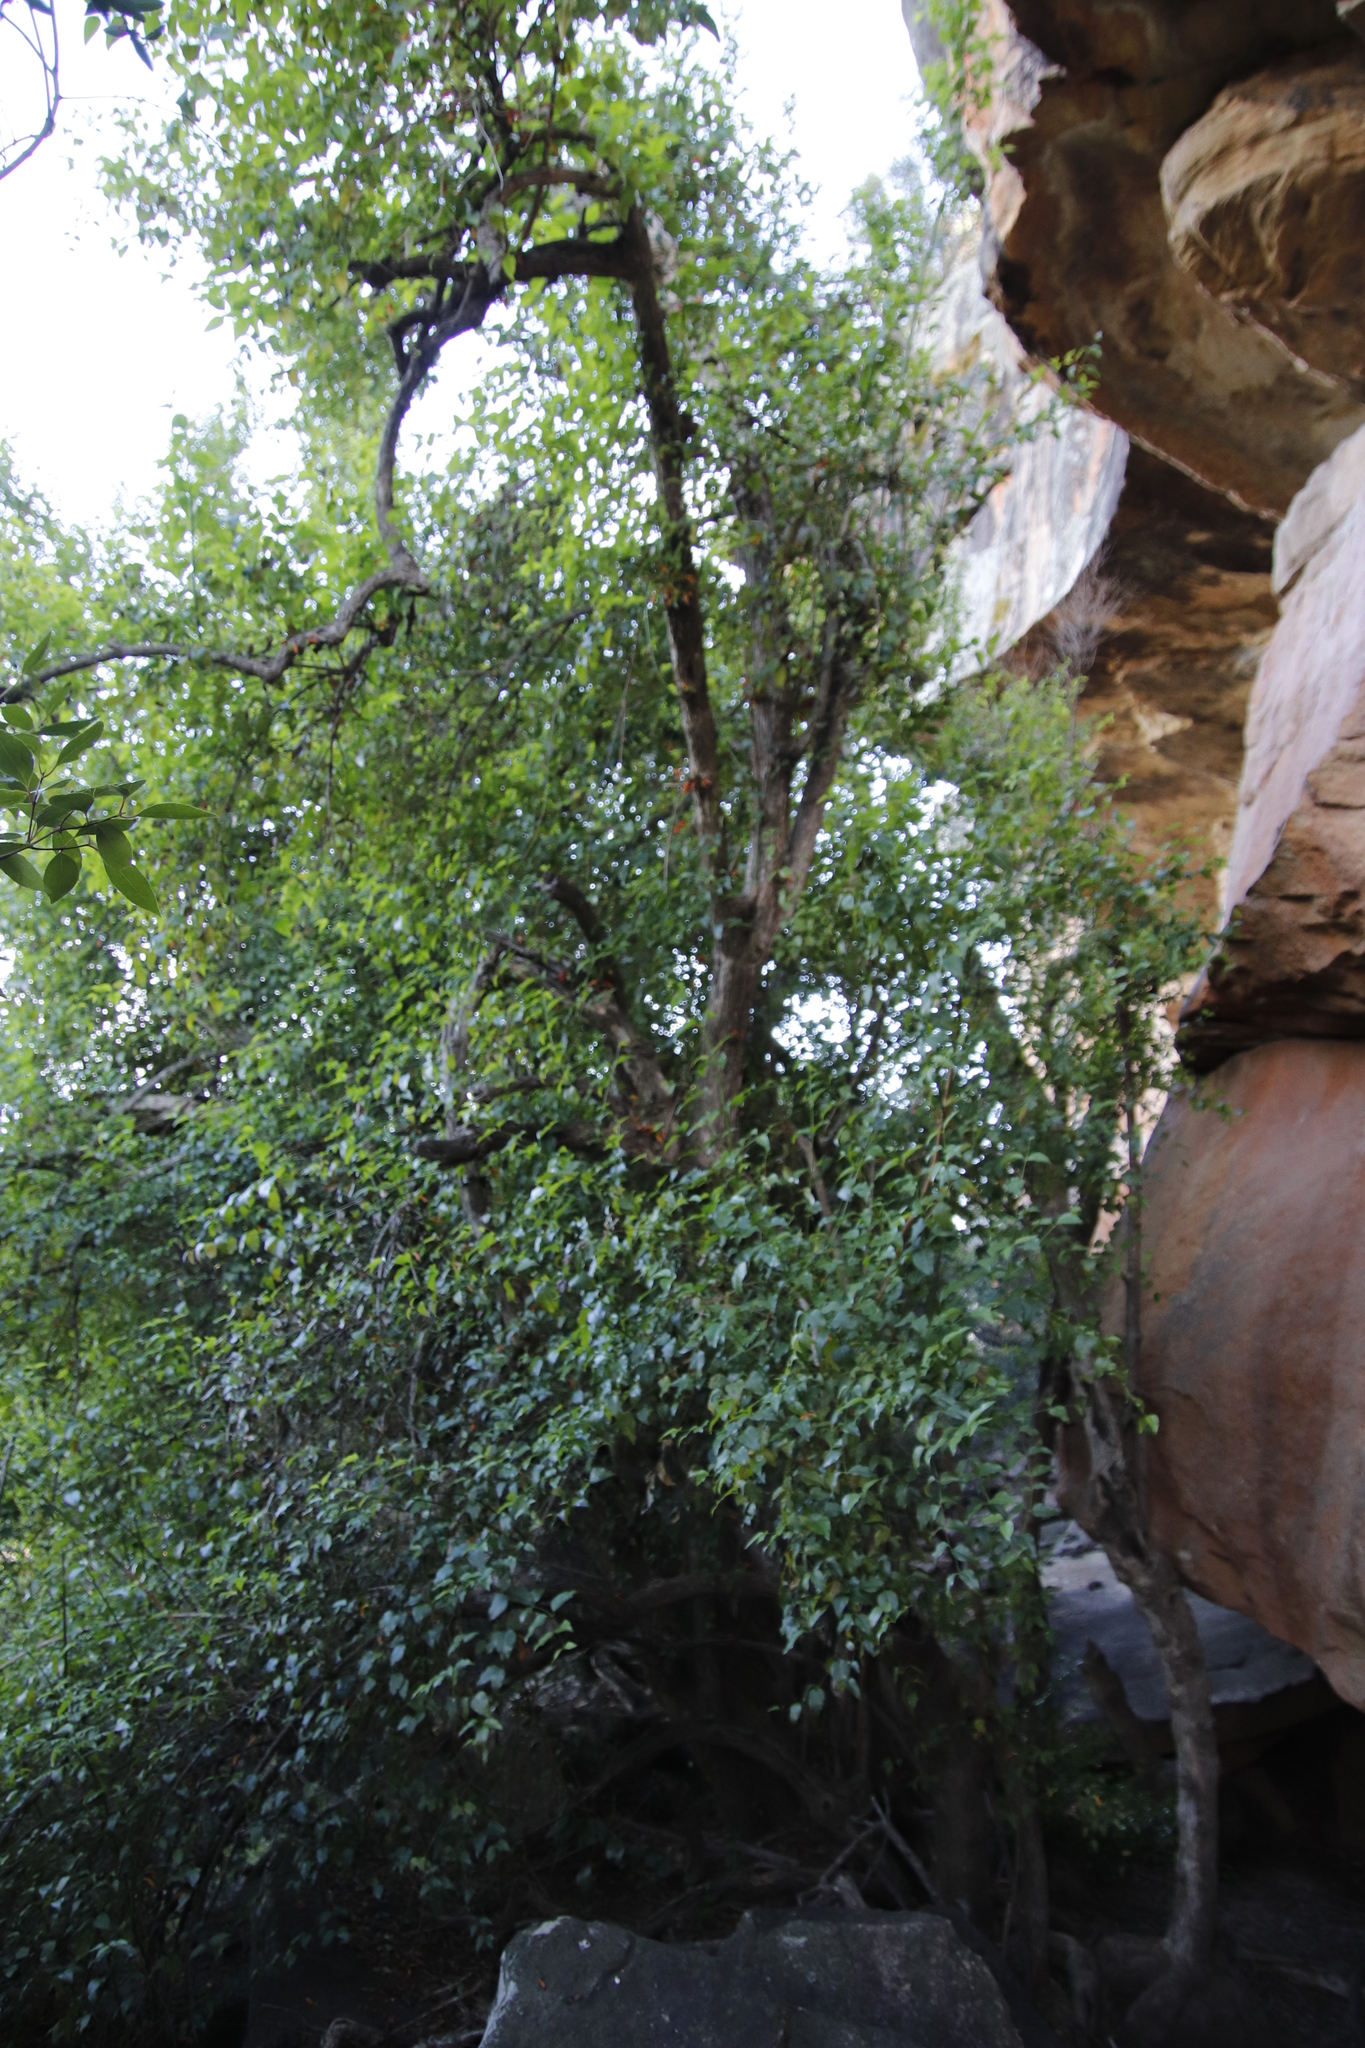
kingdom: Plantae
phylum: Tracheophyta
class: Magnoliopsida
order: Lamiales
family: Stilbaceae
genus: Halleria
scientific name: Halleria lucida
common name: Tree fuschia
